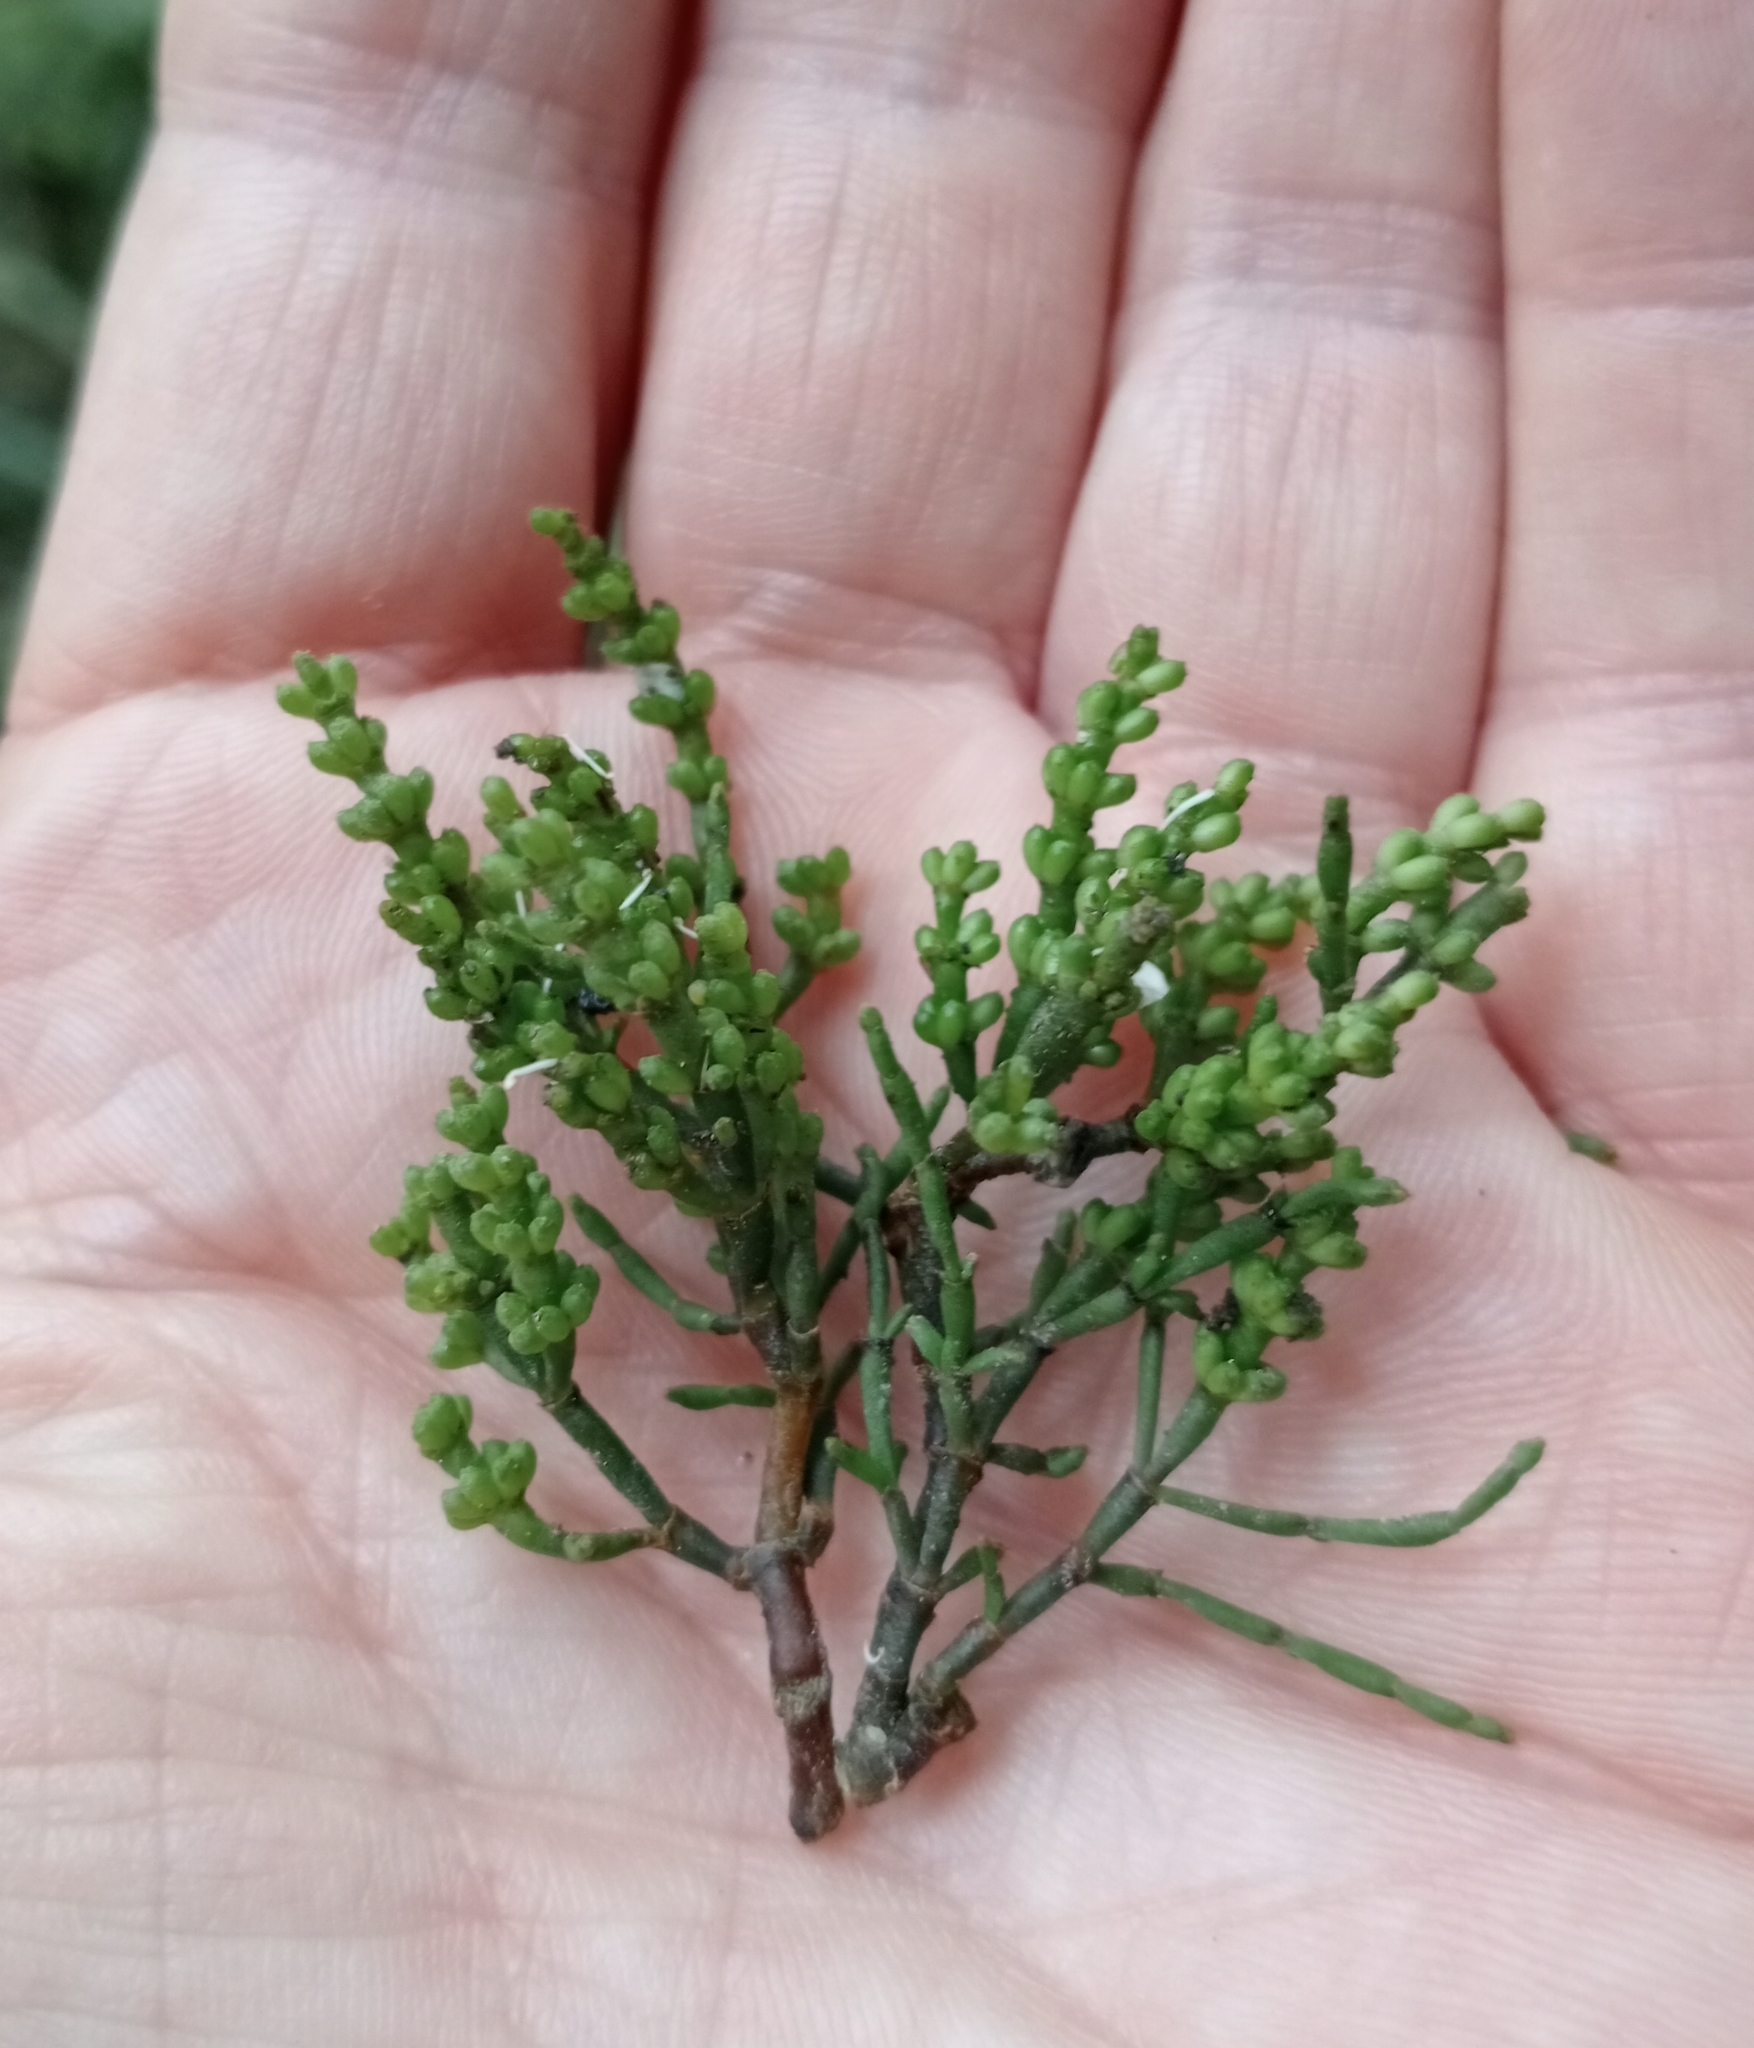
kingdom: Plantae
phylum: Tracheophyta
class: Magnoliopsida
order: Santalales
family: Viscaceae
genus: Korthalsella
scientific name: Korthalsella salicornioides
